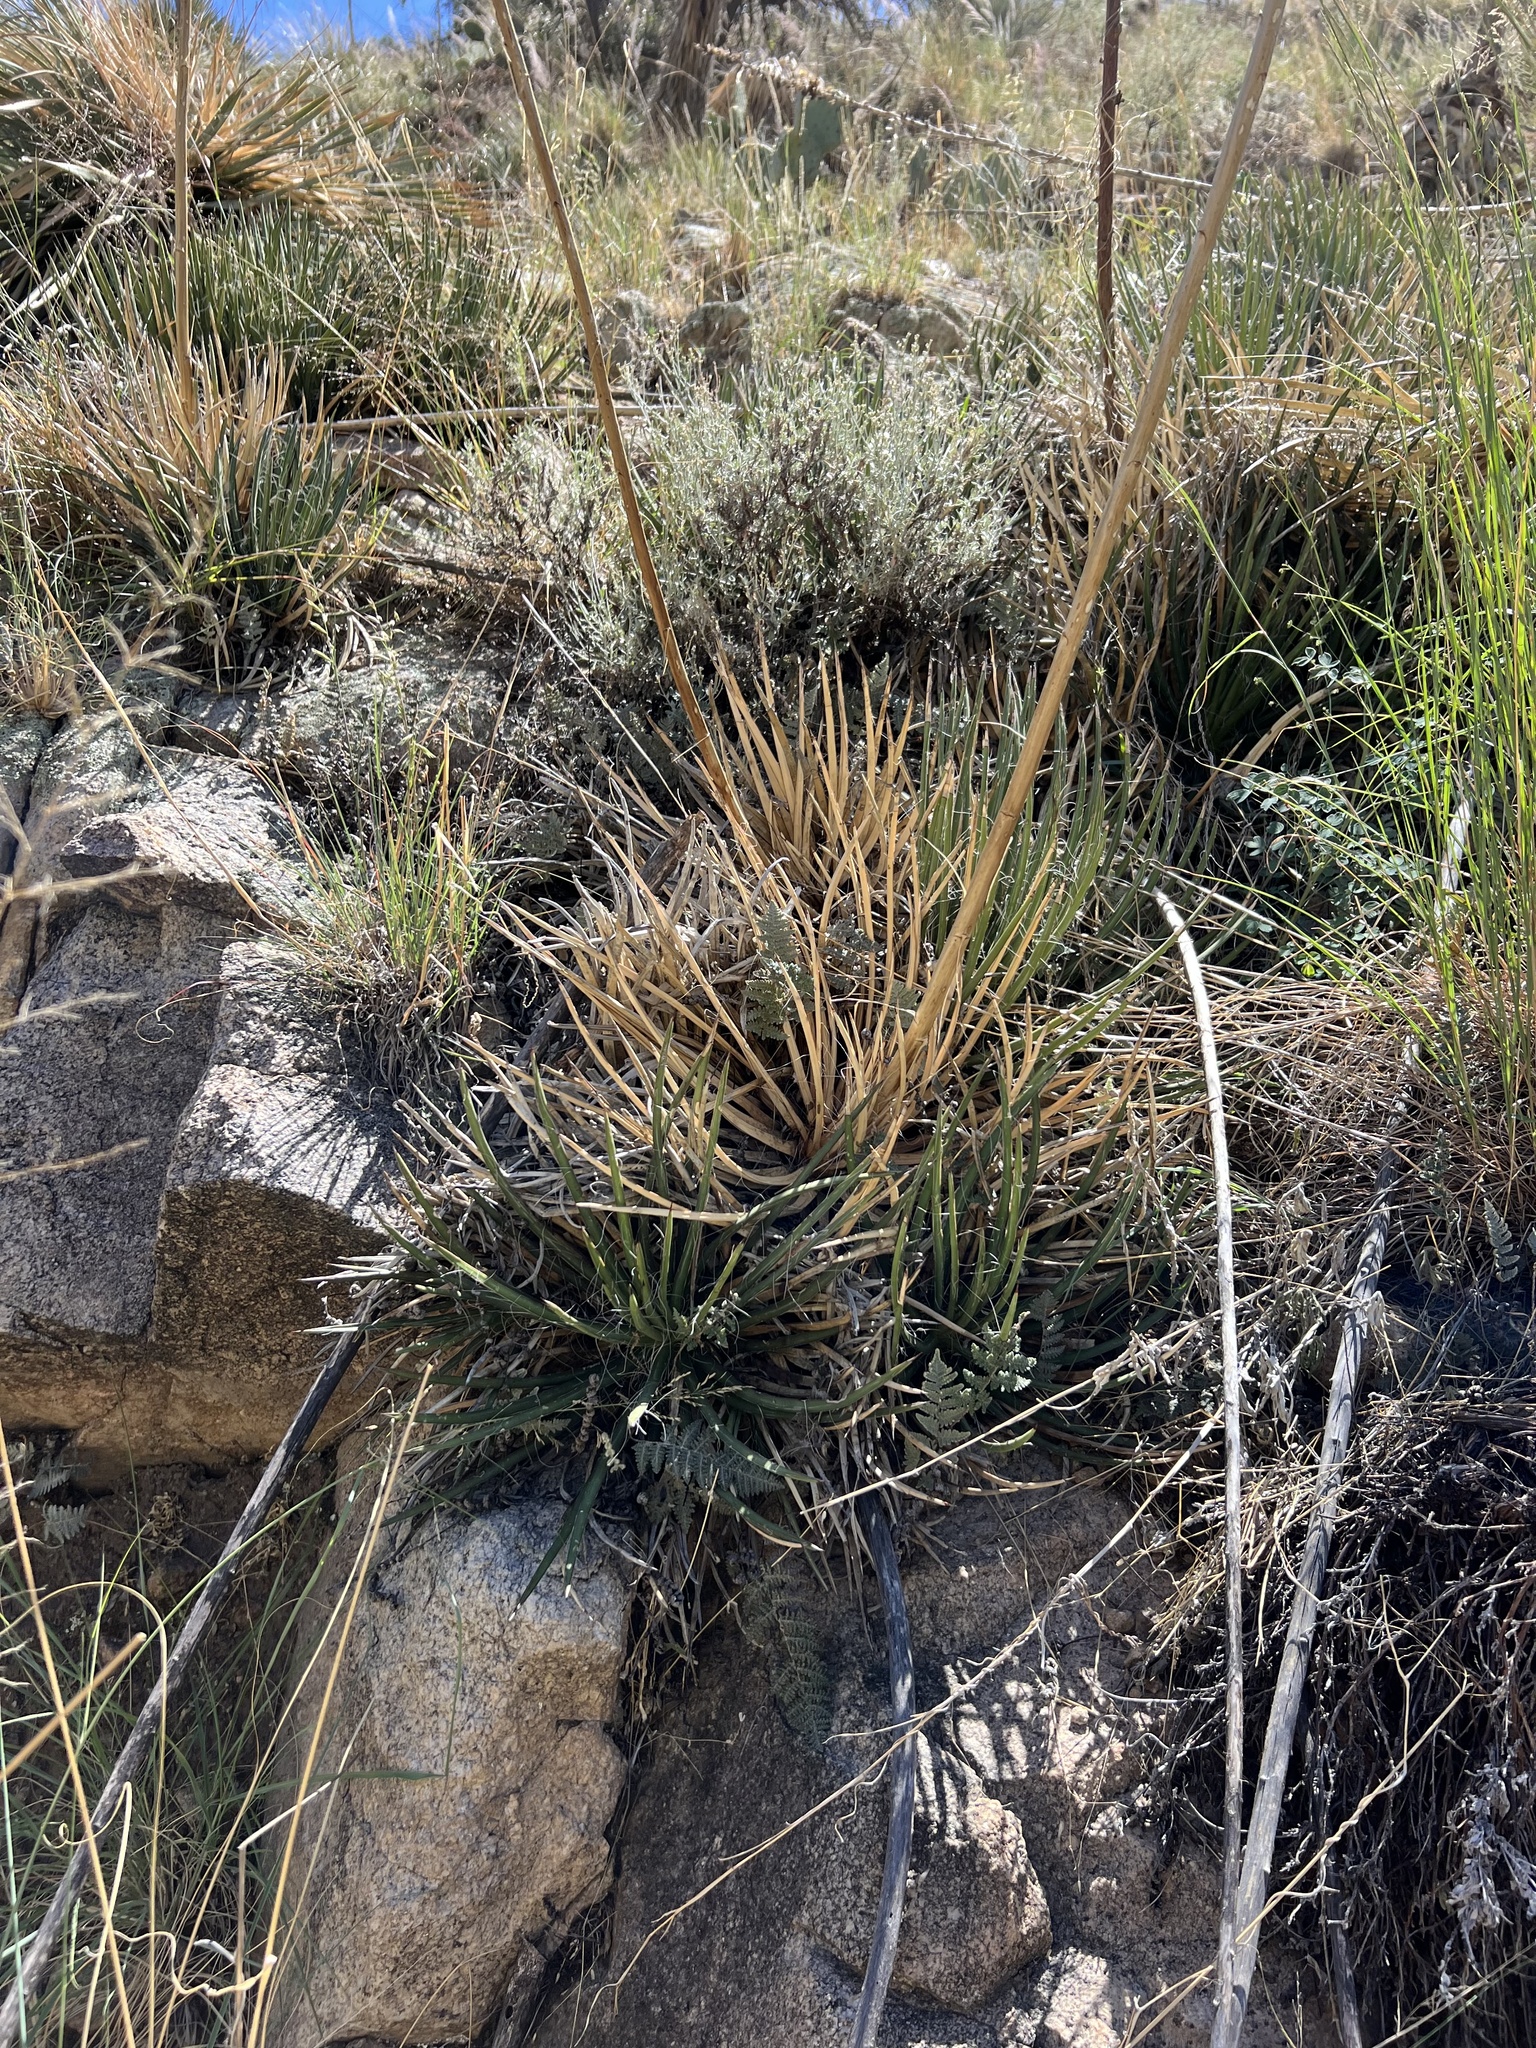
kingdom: Plantae
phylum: Tracheophyta
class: Liliopsida
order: Asparagales
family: Asparagaceae
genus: Agave
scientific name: Agave schottii
